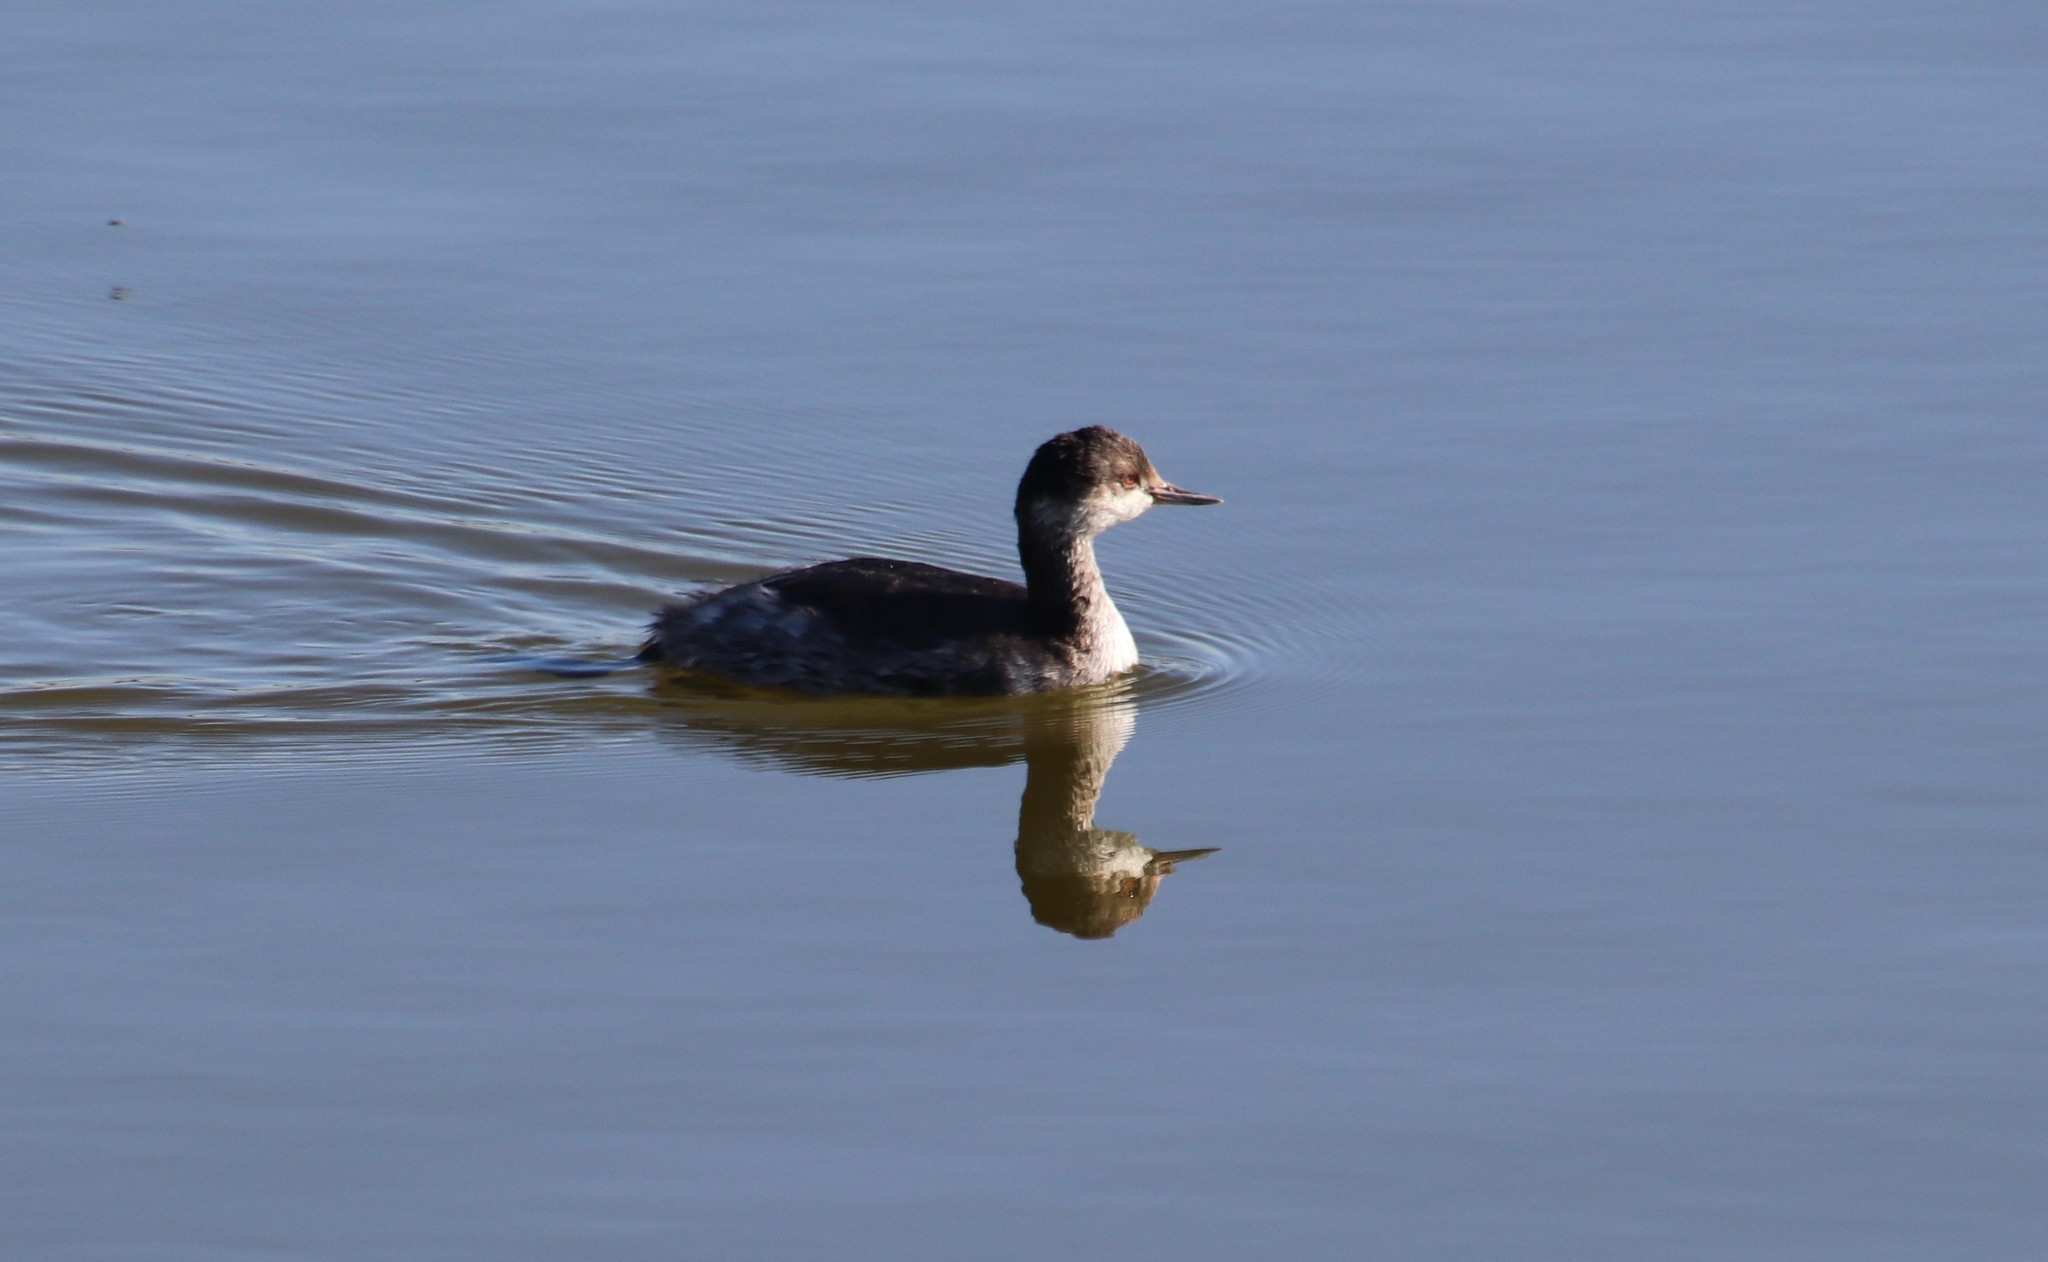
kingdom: Animalia
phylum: Chordata
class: Aves
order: Podicipediformes
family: Podicipedidae
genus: Podiceps
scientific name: Podiceps nigricollis
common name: Black-necked grebe
